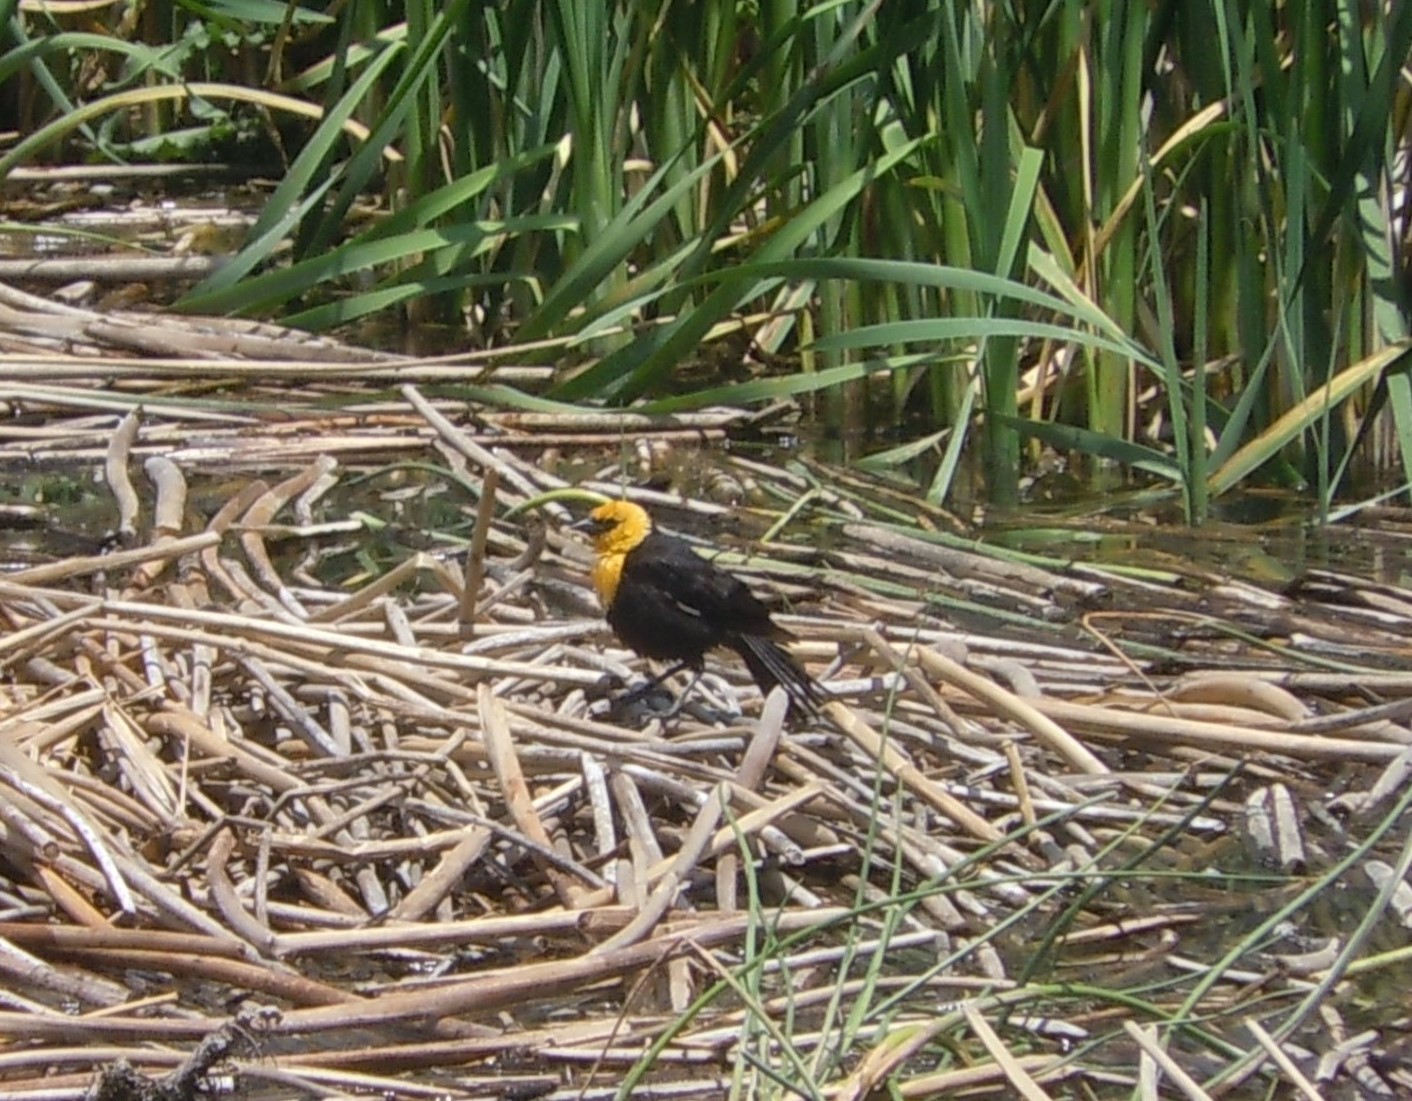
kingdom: Animalia
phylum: Chordata
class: Aves
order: Passeriformes
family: Icteridae
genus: Xanthocephalus
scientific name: Xanthocephalus xanthocephalus
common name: Yellow-headed blackbird
